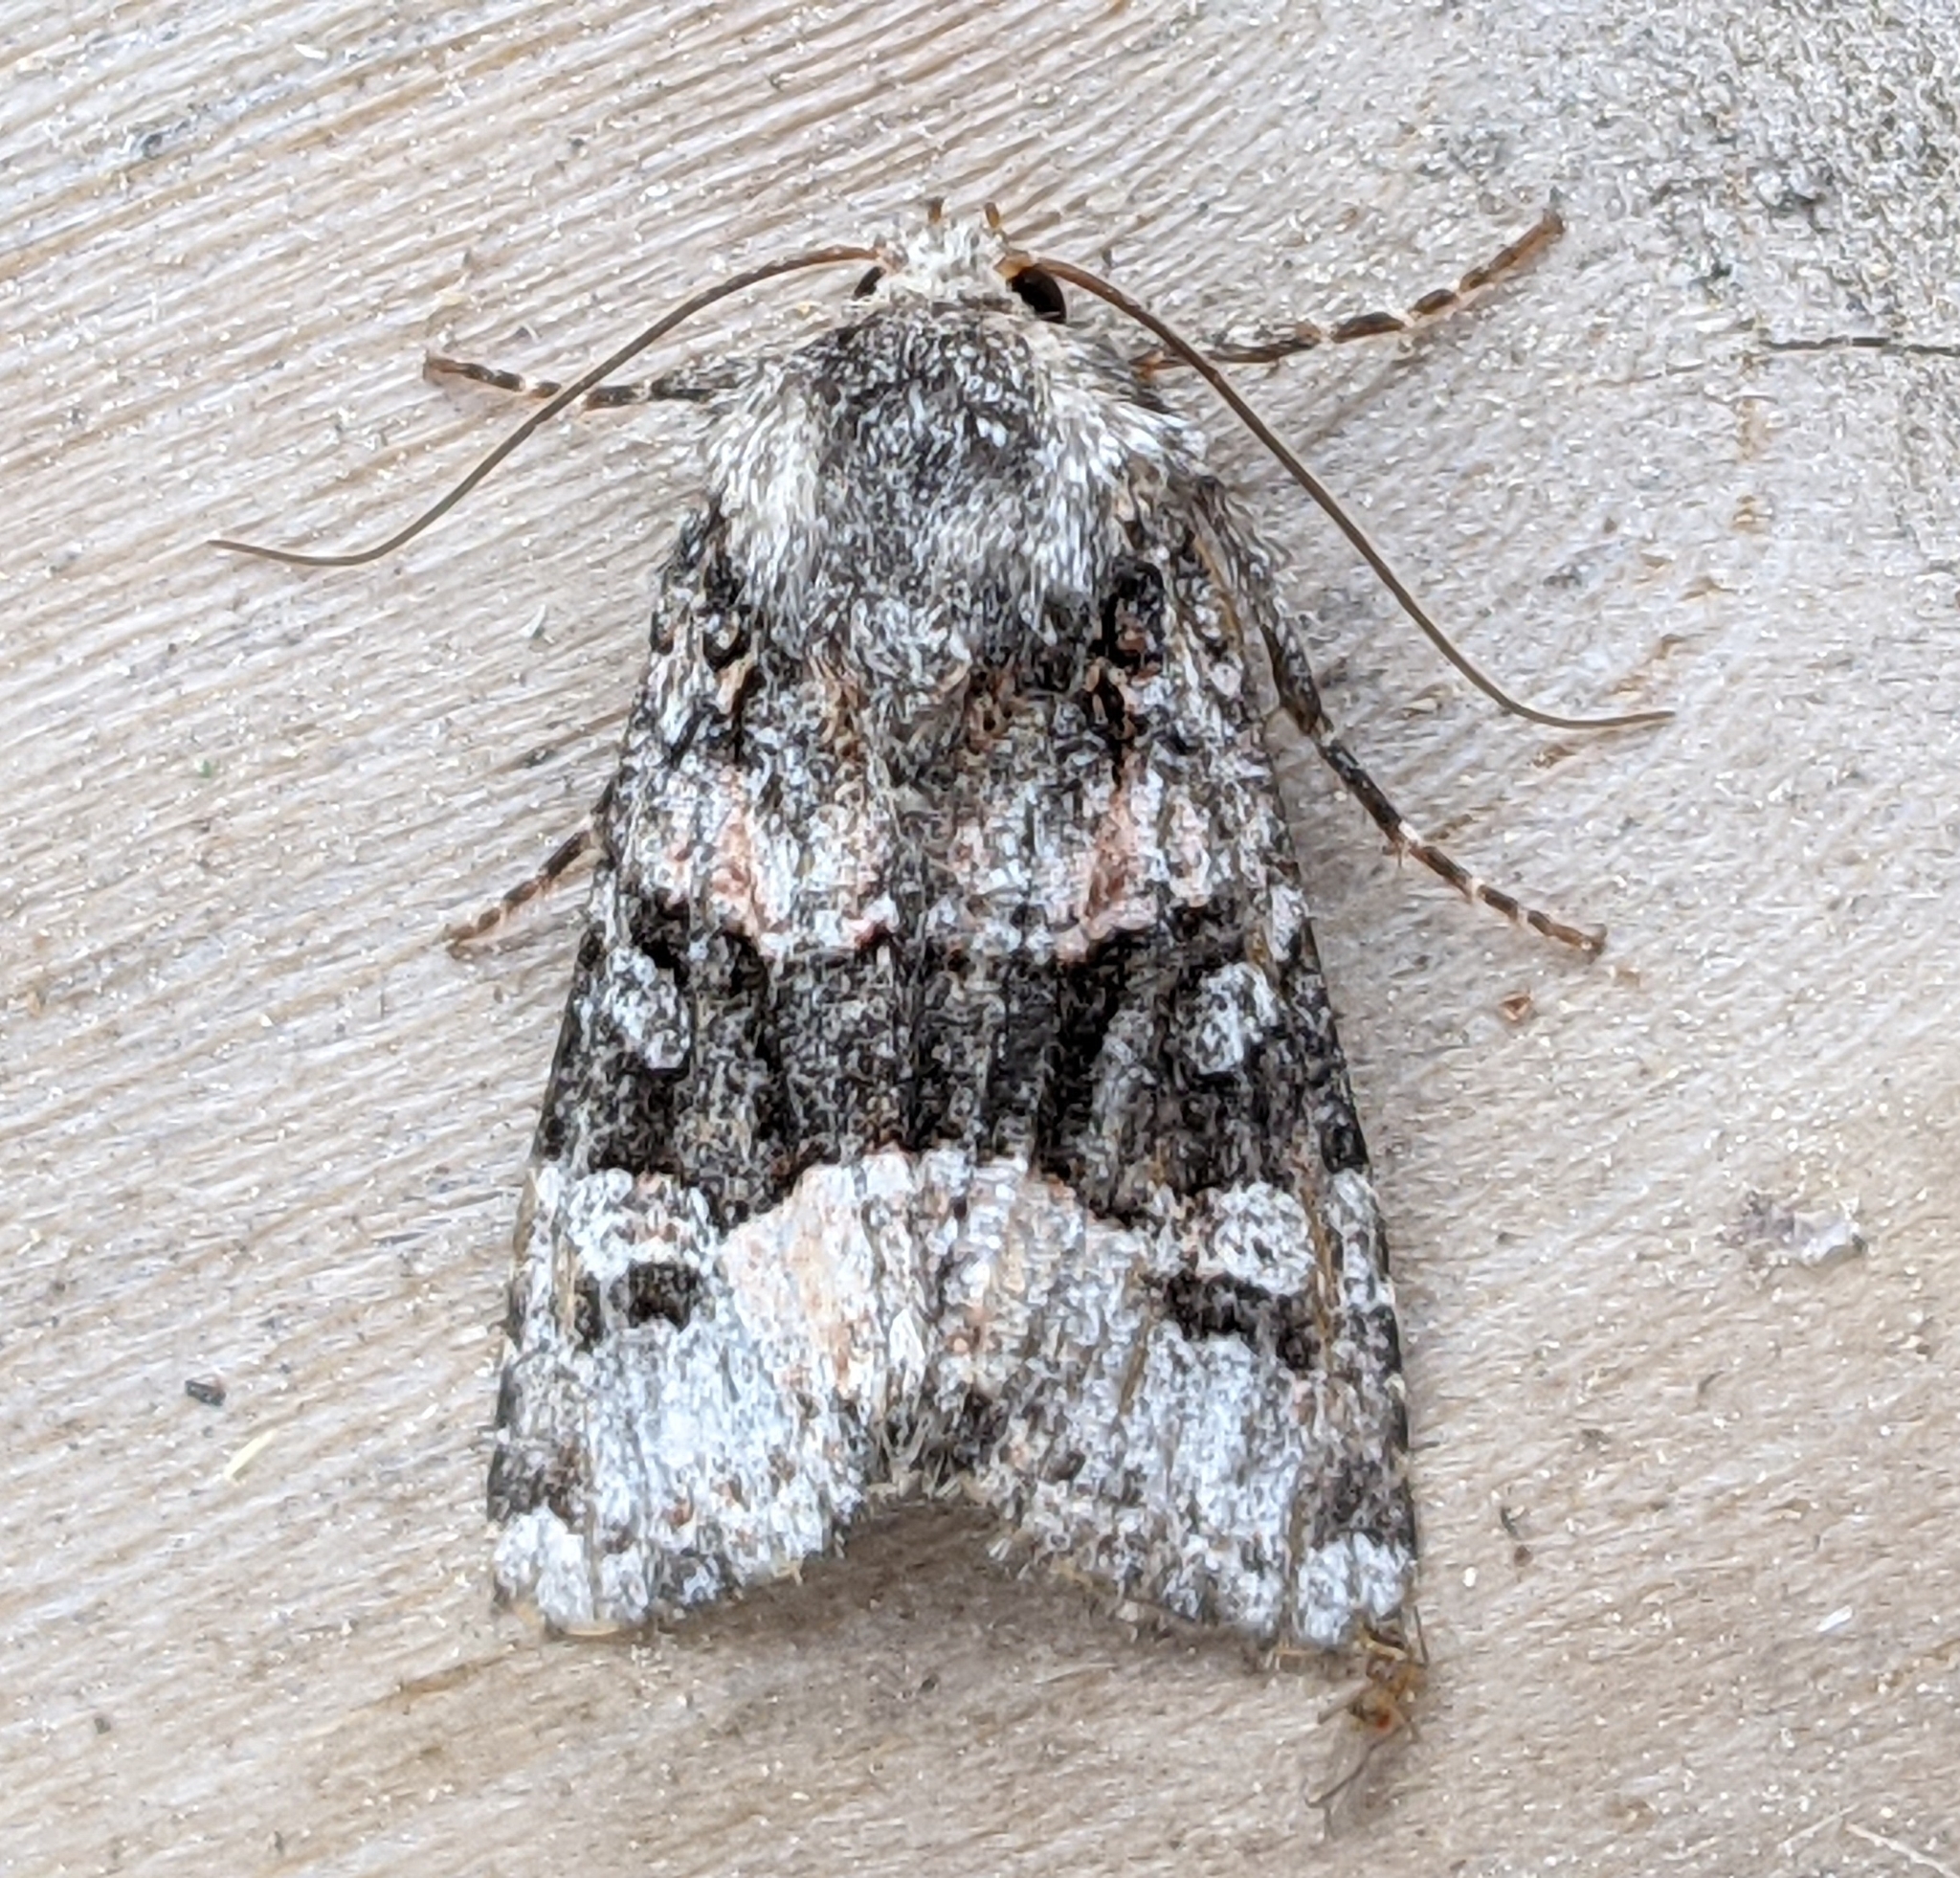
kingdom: Animalia
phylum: Arthropoda
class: Insecta
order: Lepidoptera
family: Noctuidae
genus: Lacinipolia
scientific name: Lacinipolia olivacea
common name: Olive arches moth
